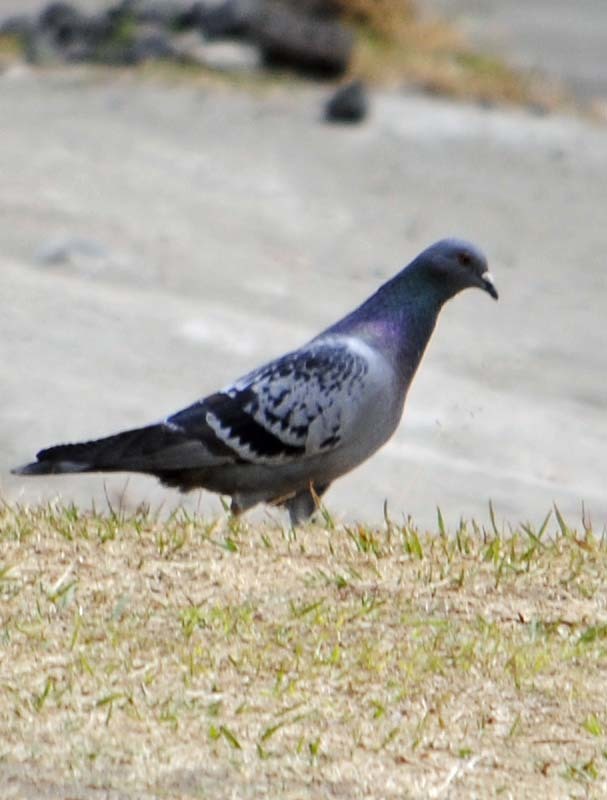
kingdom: Animalia
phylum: Chordata
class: Aves
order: Columbiformes
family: Columbidae
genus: Columba
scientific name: Columba livia
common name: Rock pigeon
